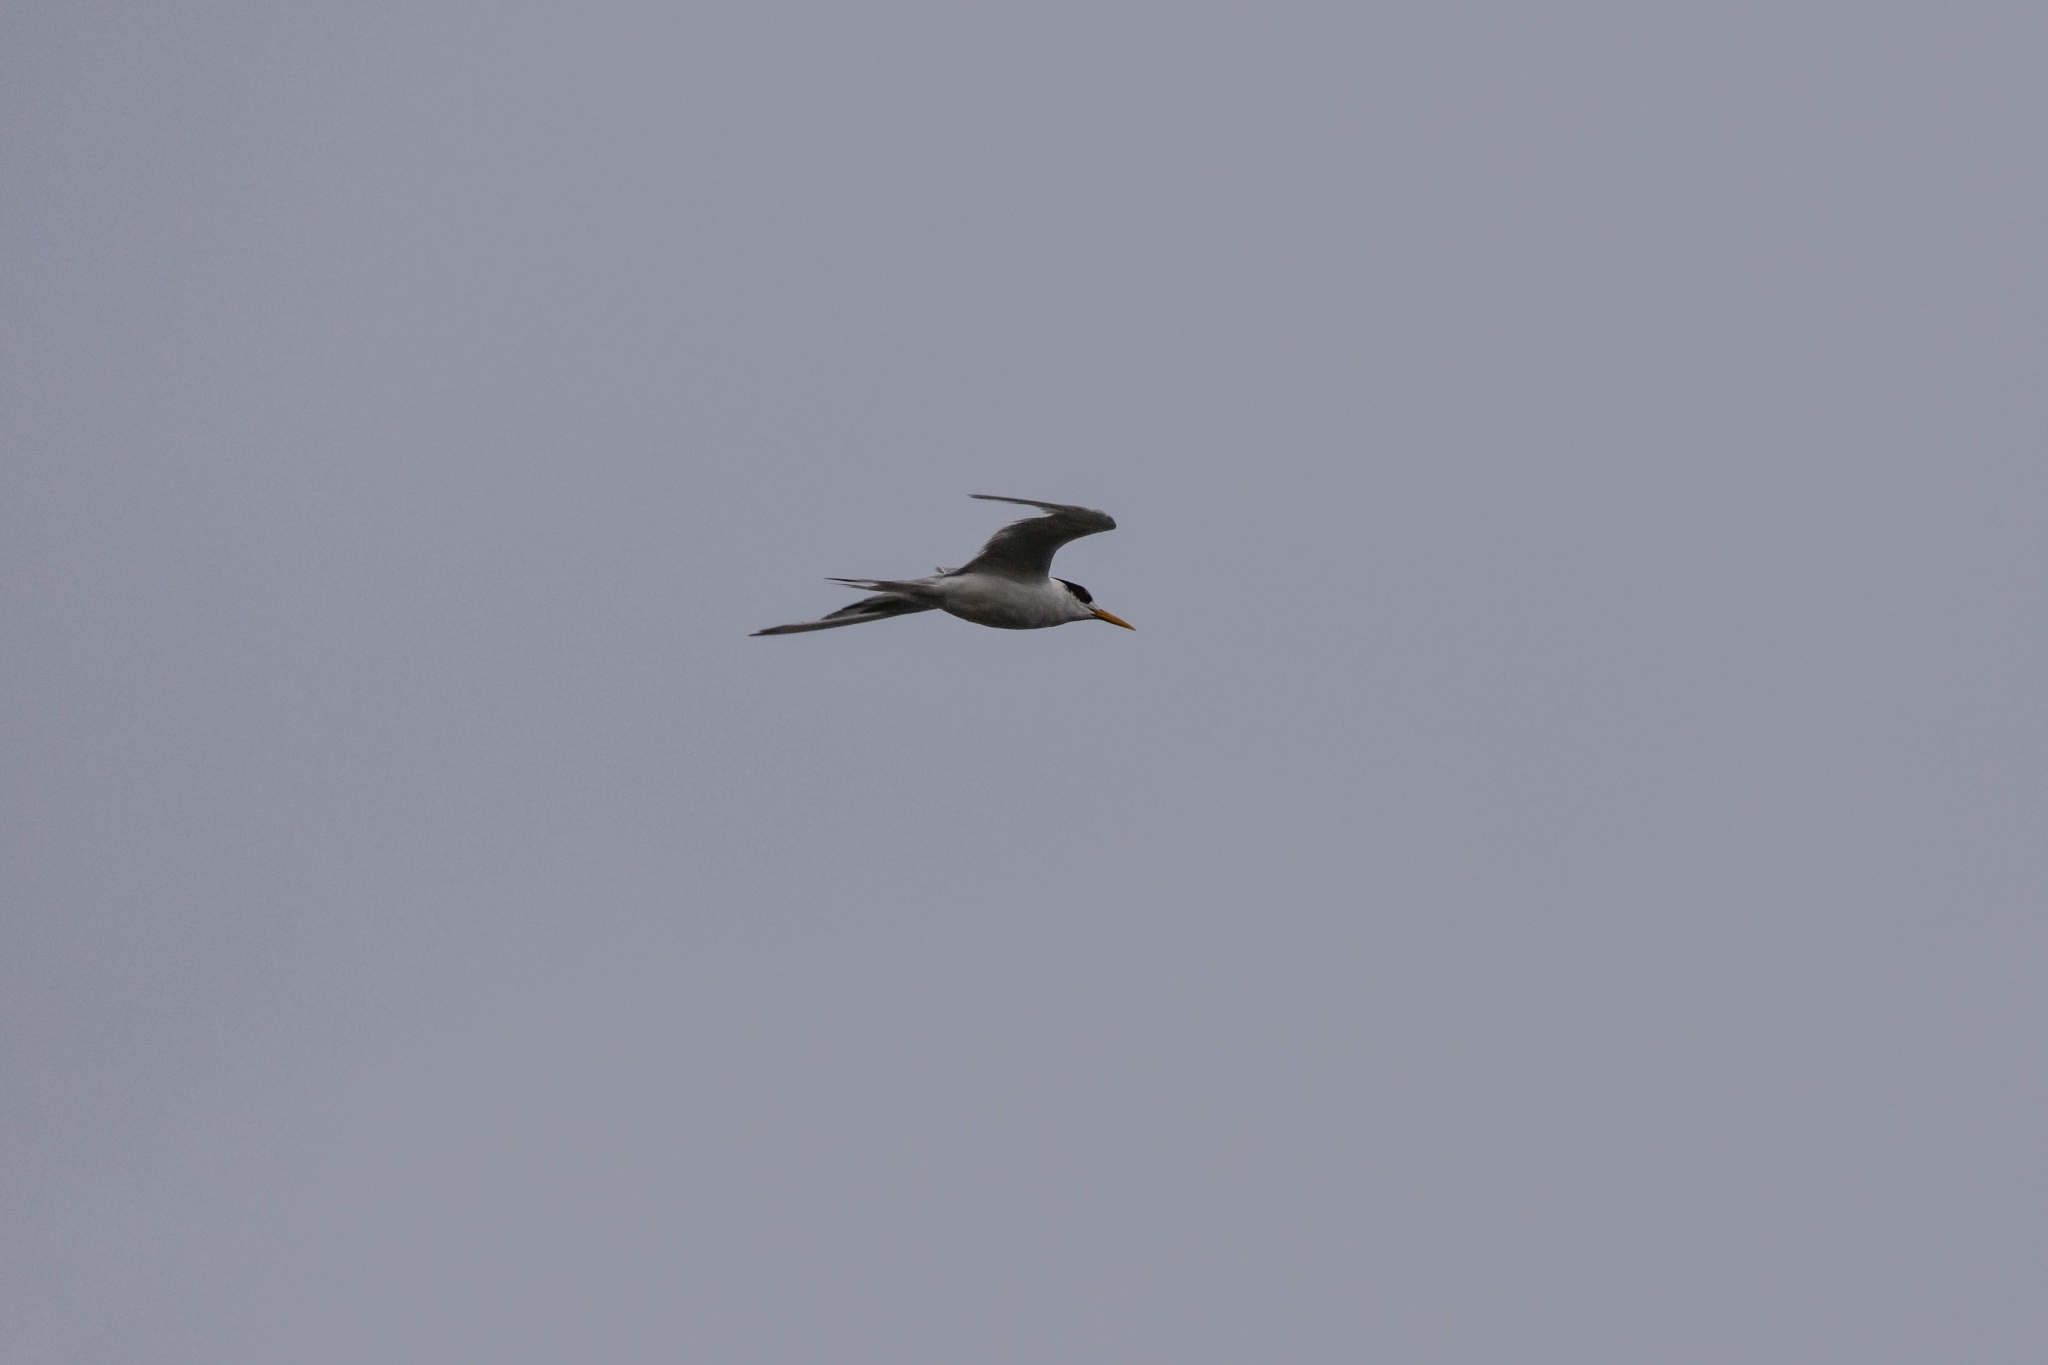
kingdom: Animalia
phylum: Chordata
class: Aves
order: Charadriiformes
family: Laridae
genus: Thalasseus
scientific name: Thalasseus bergii
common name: Greater crested tern
